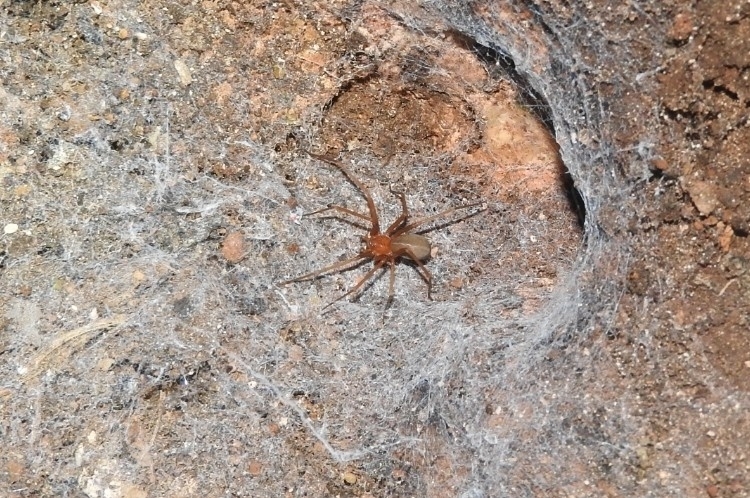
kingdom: Animalia
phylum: Arthropoda
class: Arachnida
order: Araneae
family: Sicariidae
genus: Loxosceles
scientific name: Loxosceles yucatana
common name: Violin spiders
